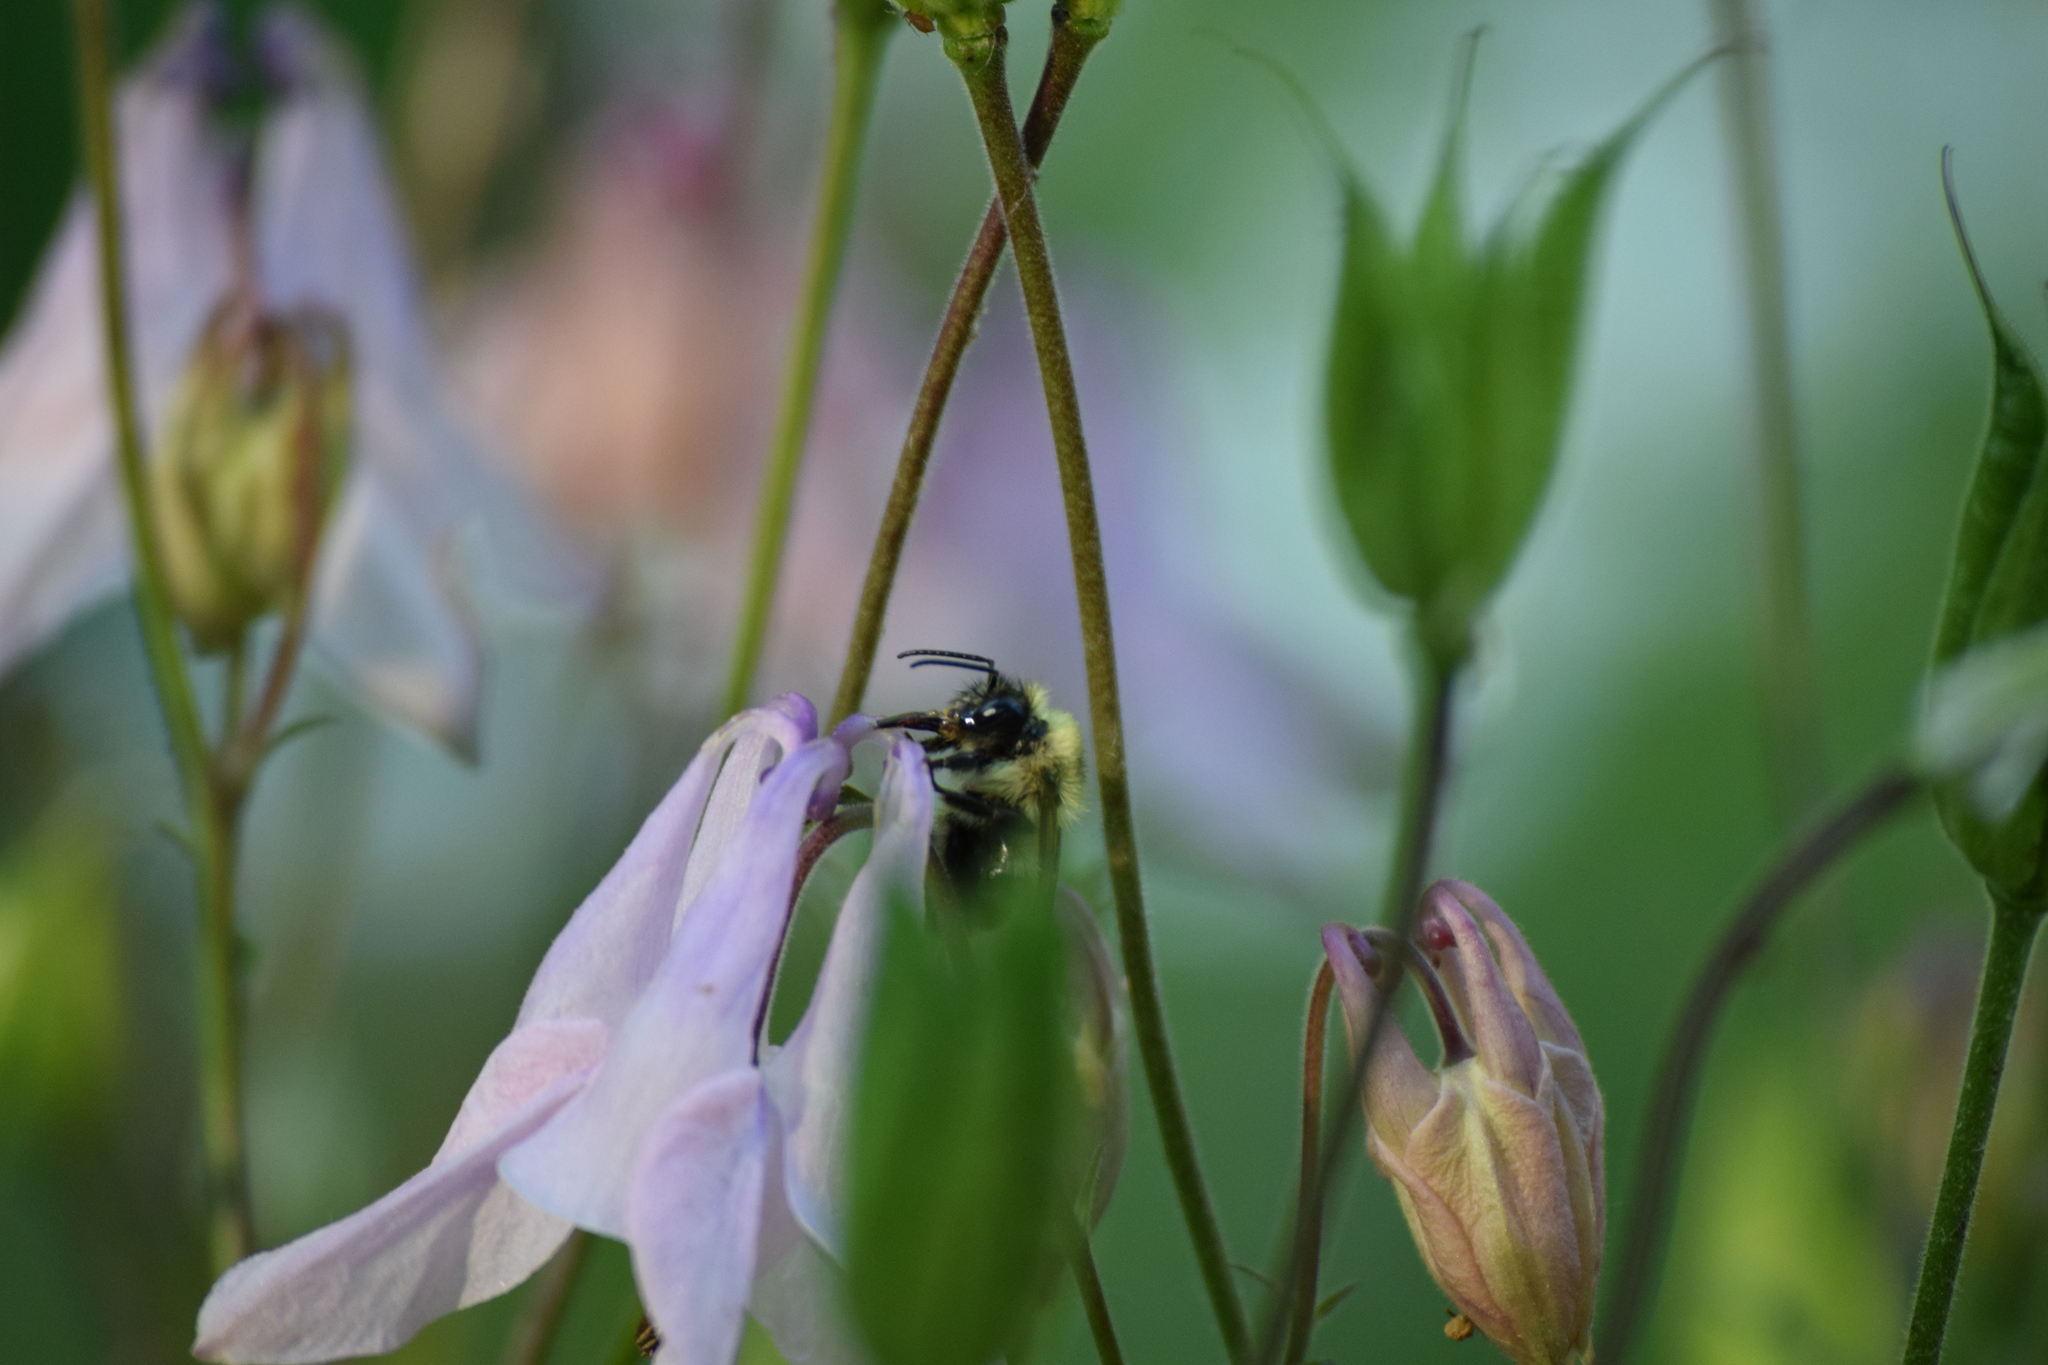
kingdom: Animalia
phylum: Arthropoda
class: Insecta
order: Hymenoptera
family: Apidae
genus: Bombus
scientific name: Bombus bimaculatus
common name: Two-spotted bumble bee
